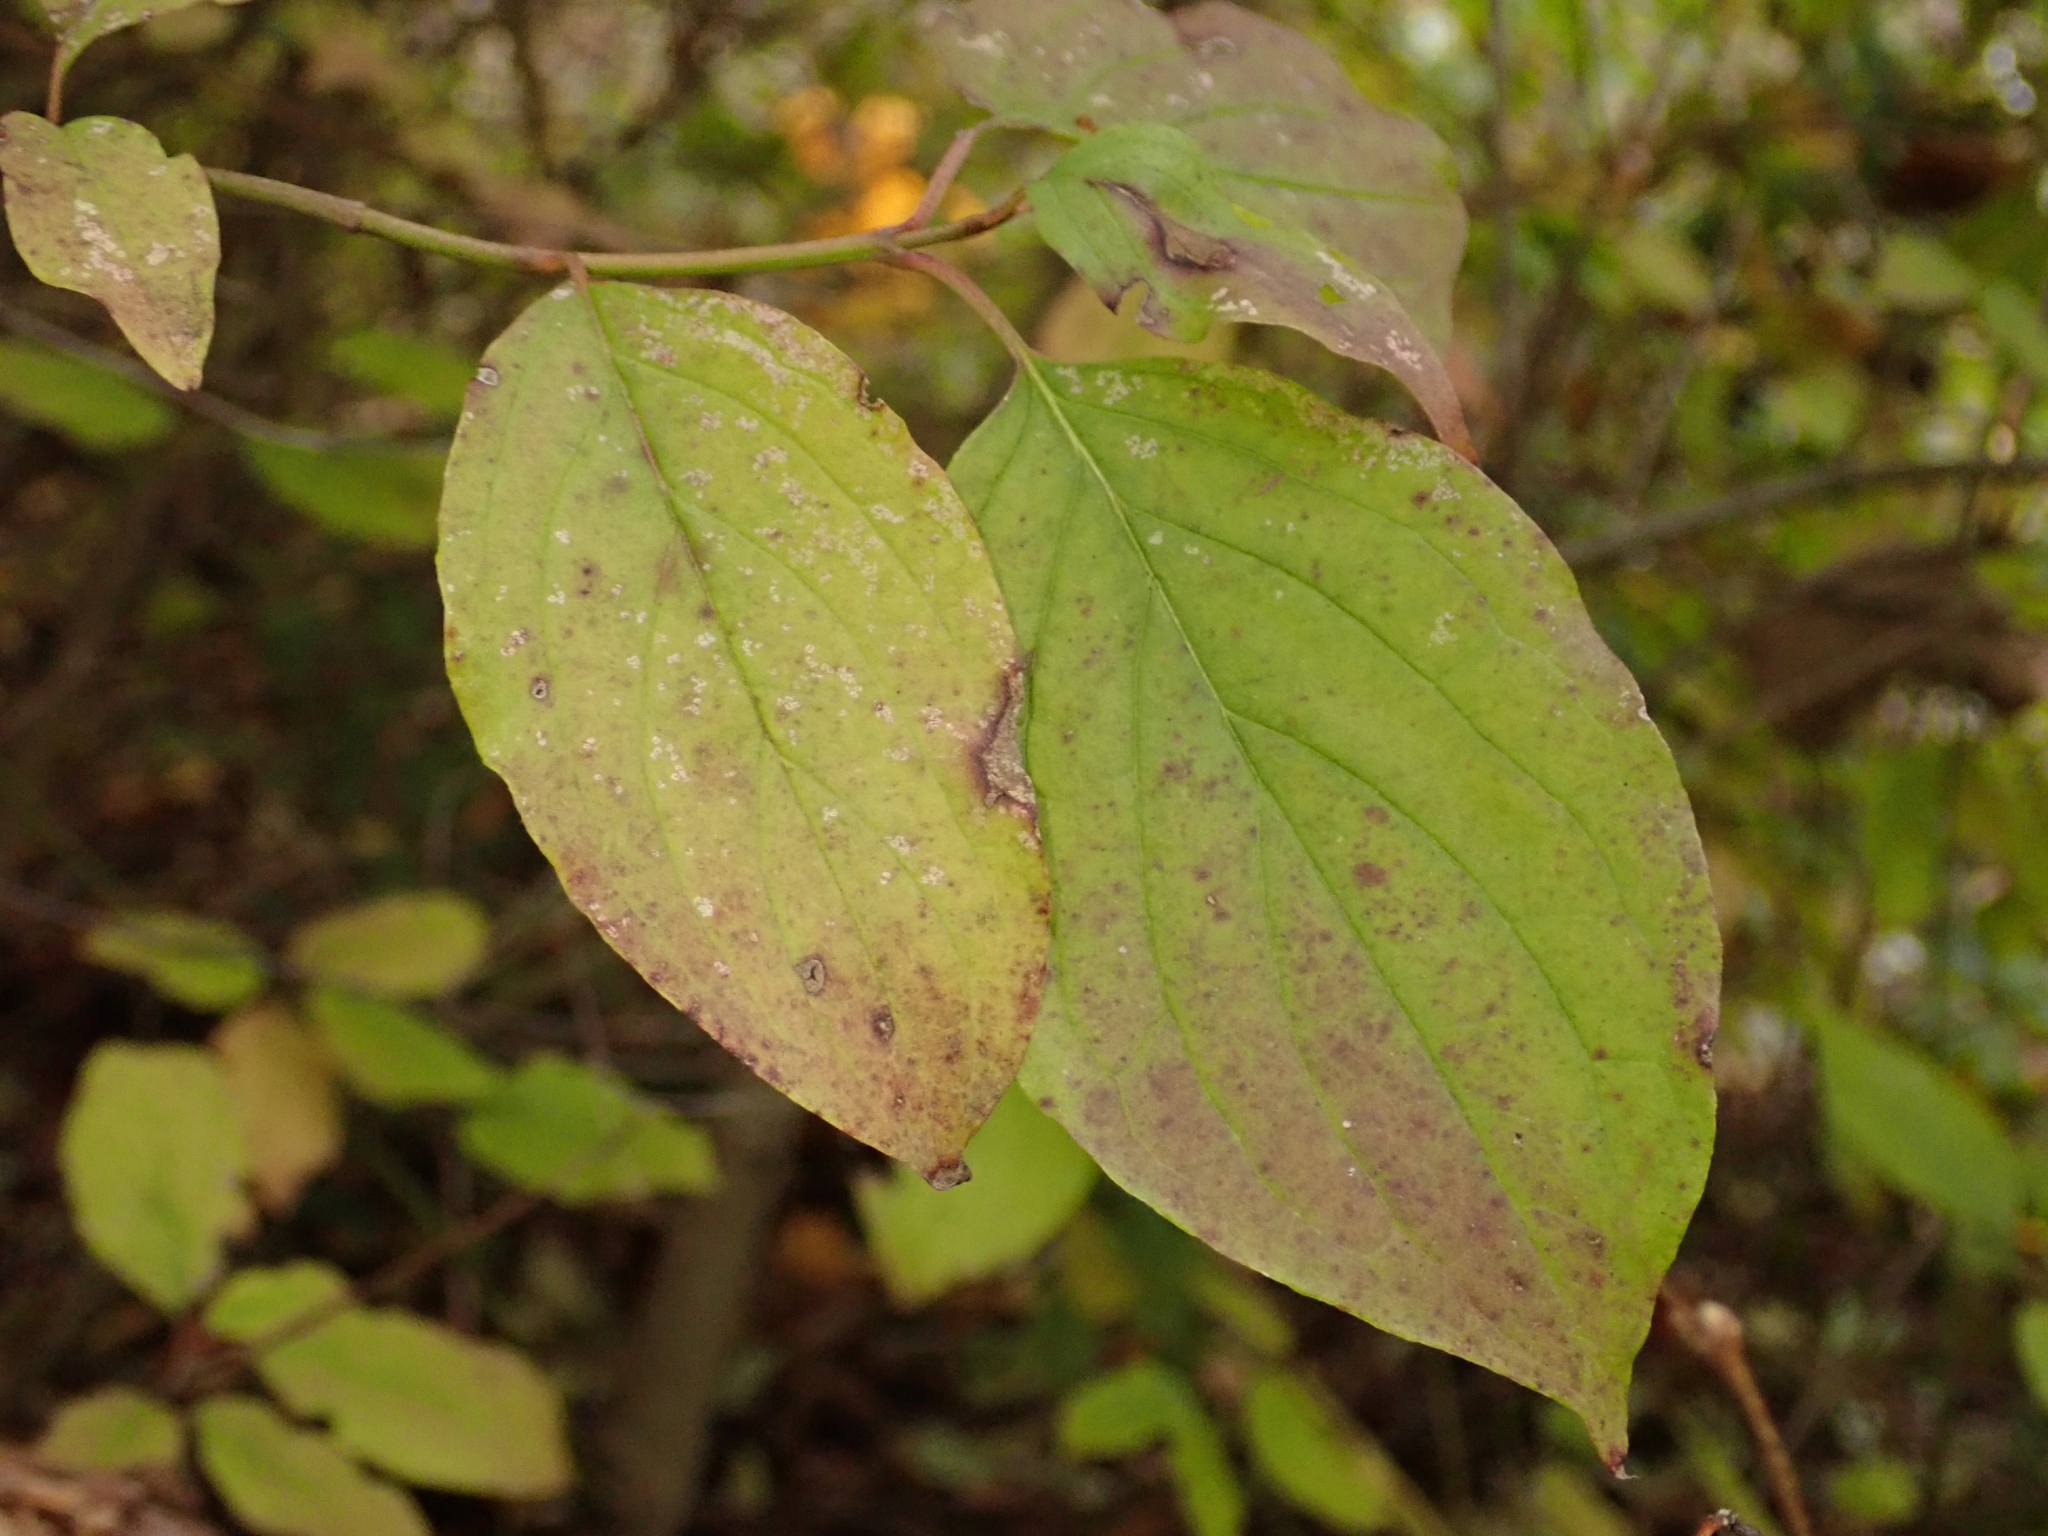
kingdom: Plantae
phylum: Tracheophyta
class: Magnoliopsida
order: Cornales
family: Cornaceae
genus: Cornus
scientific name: Cornus sanguinea
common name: Dogwood
